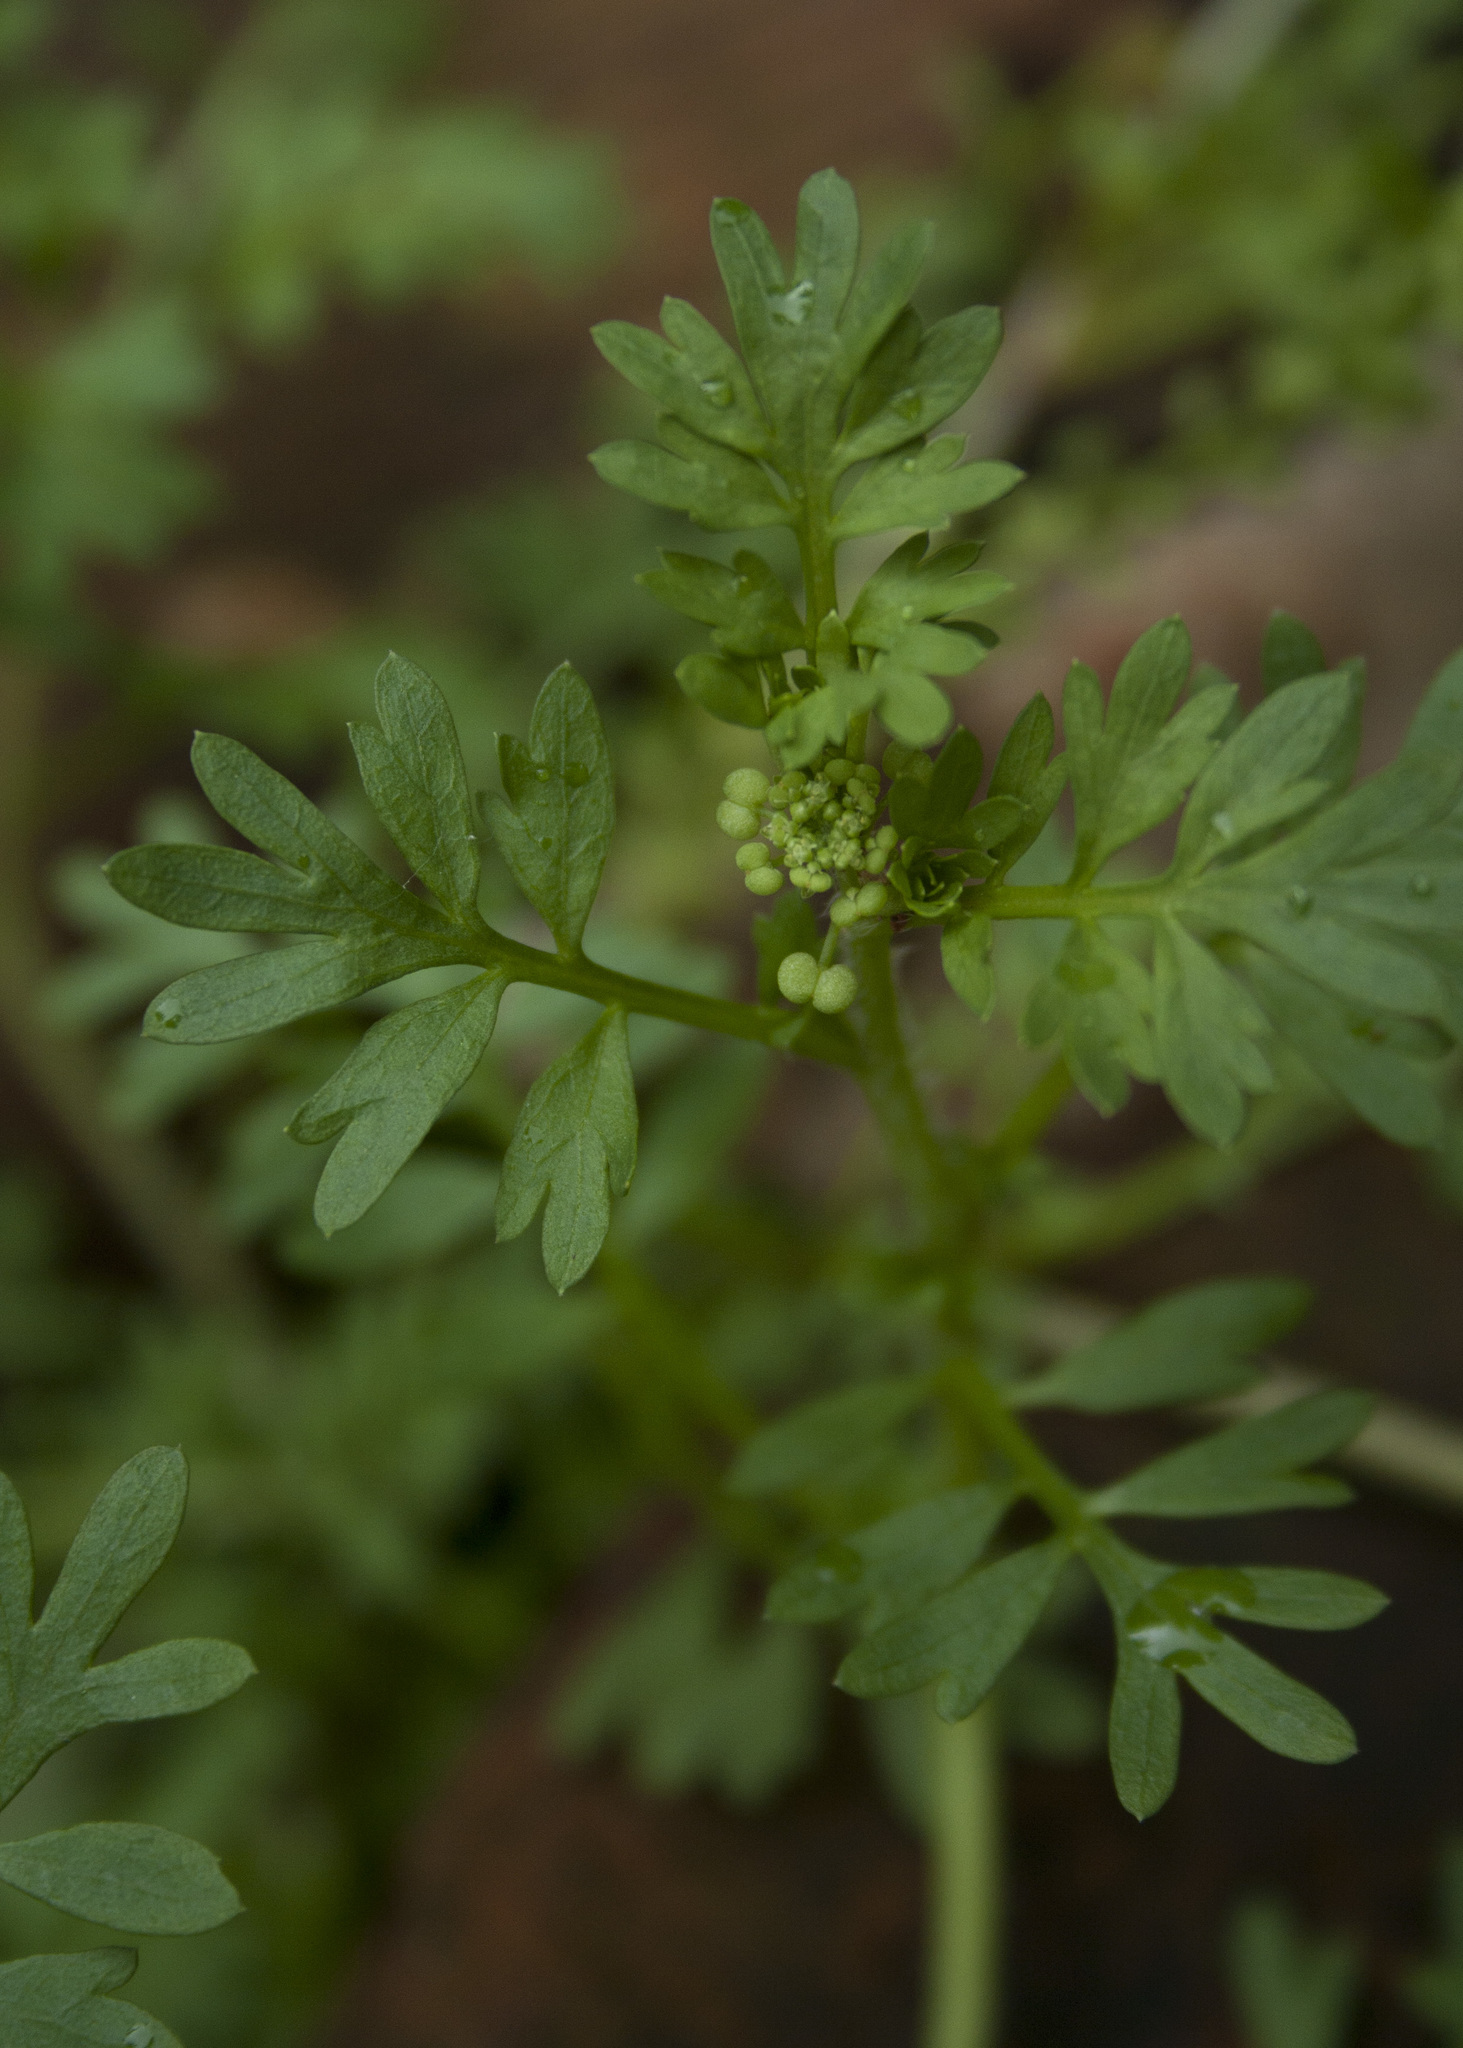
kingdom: Plantae
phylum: Tracheophyta
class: Magnoliopsida
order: Brassicales
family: Brassicaceae
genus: Lepidium
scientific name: Lepidium didymum
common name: Lesser swinecress
